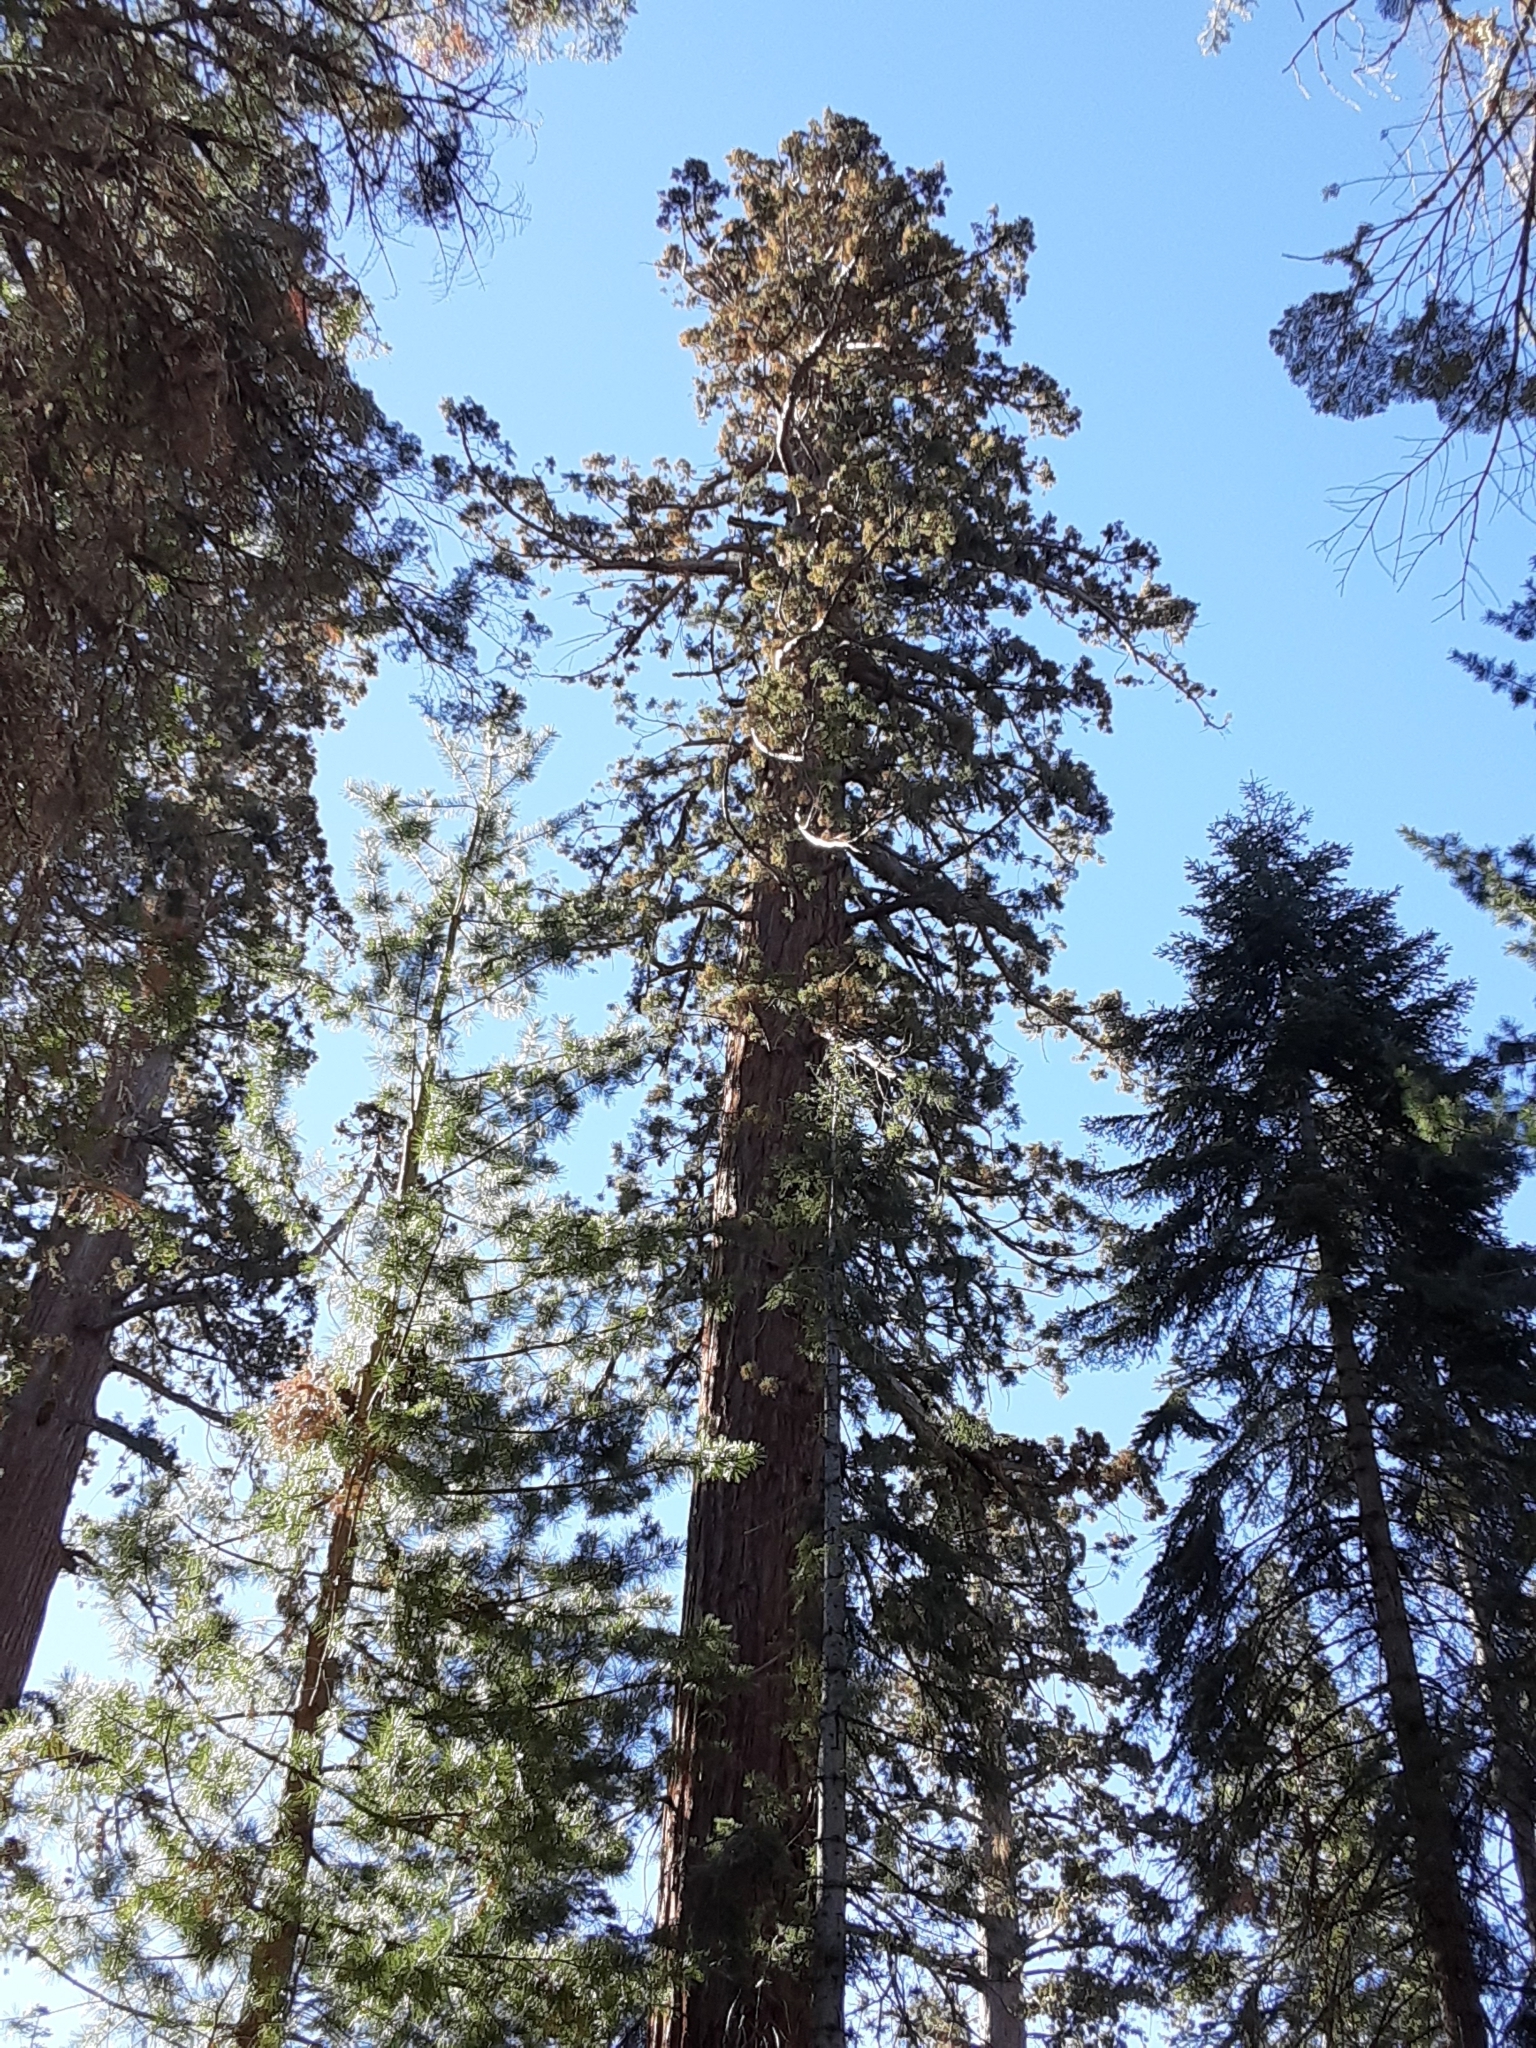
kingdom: Plantae
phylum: Tracheophyta
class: Pinopsida
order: Pinales
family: Cupressaceae
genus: Sequoiadendron
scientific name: Sequoiadendron giganteum
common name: Wellingtonia
